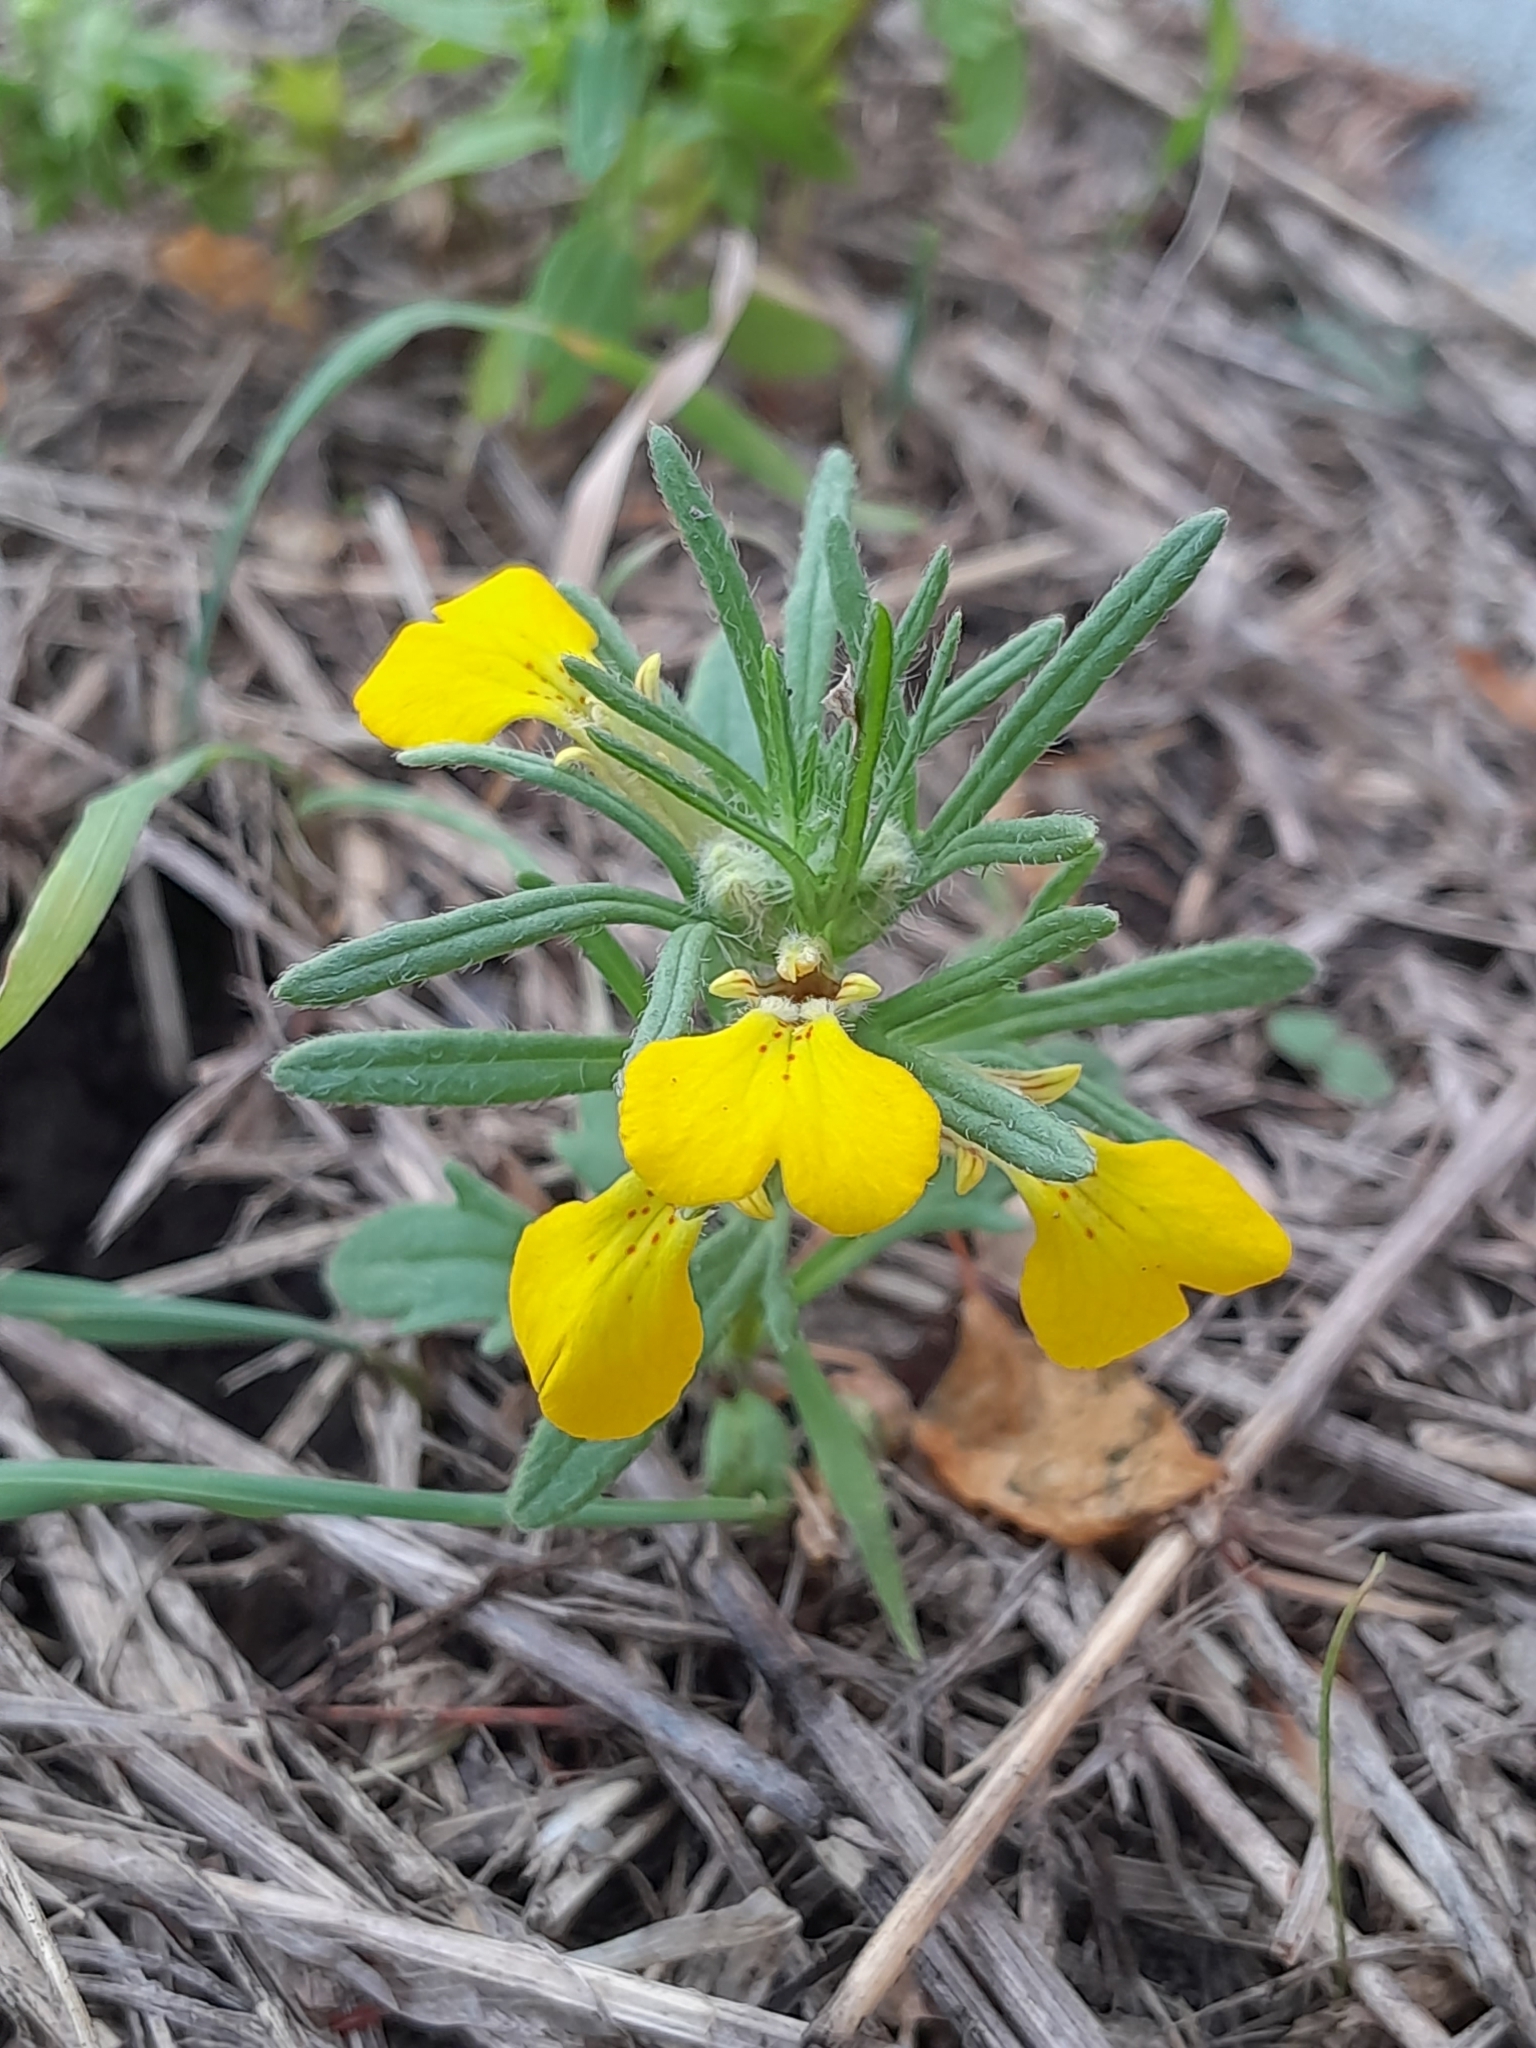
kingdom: Plantae
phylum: Tracheophyta
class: Magnoliopsida
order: Lamiales
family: Lamiaceae
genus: Ajuga
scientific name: Ajuga chamaepitys
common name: Ground-pine
